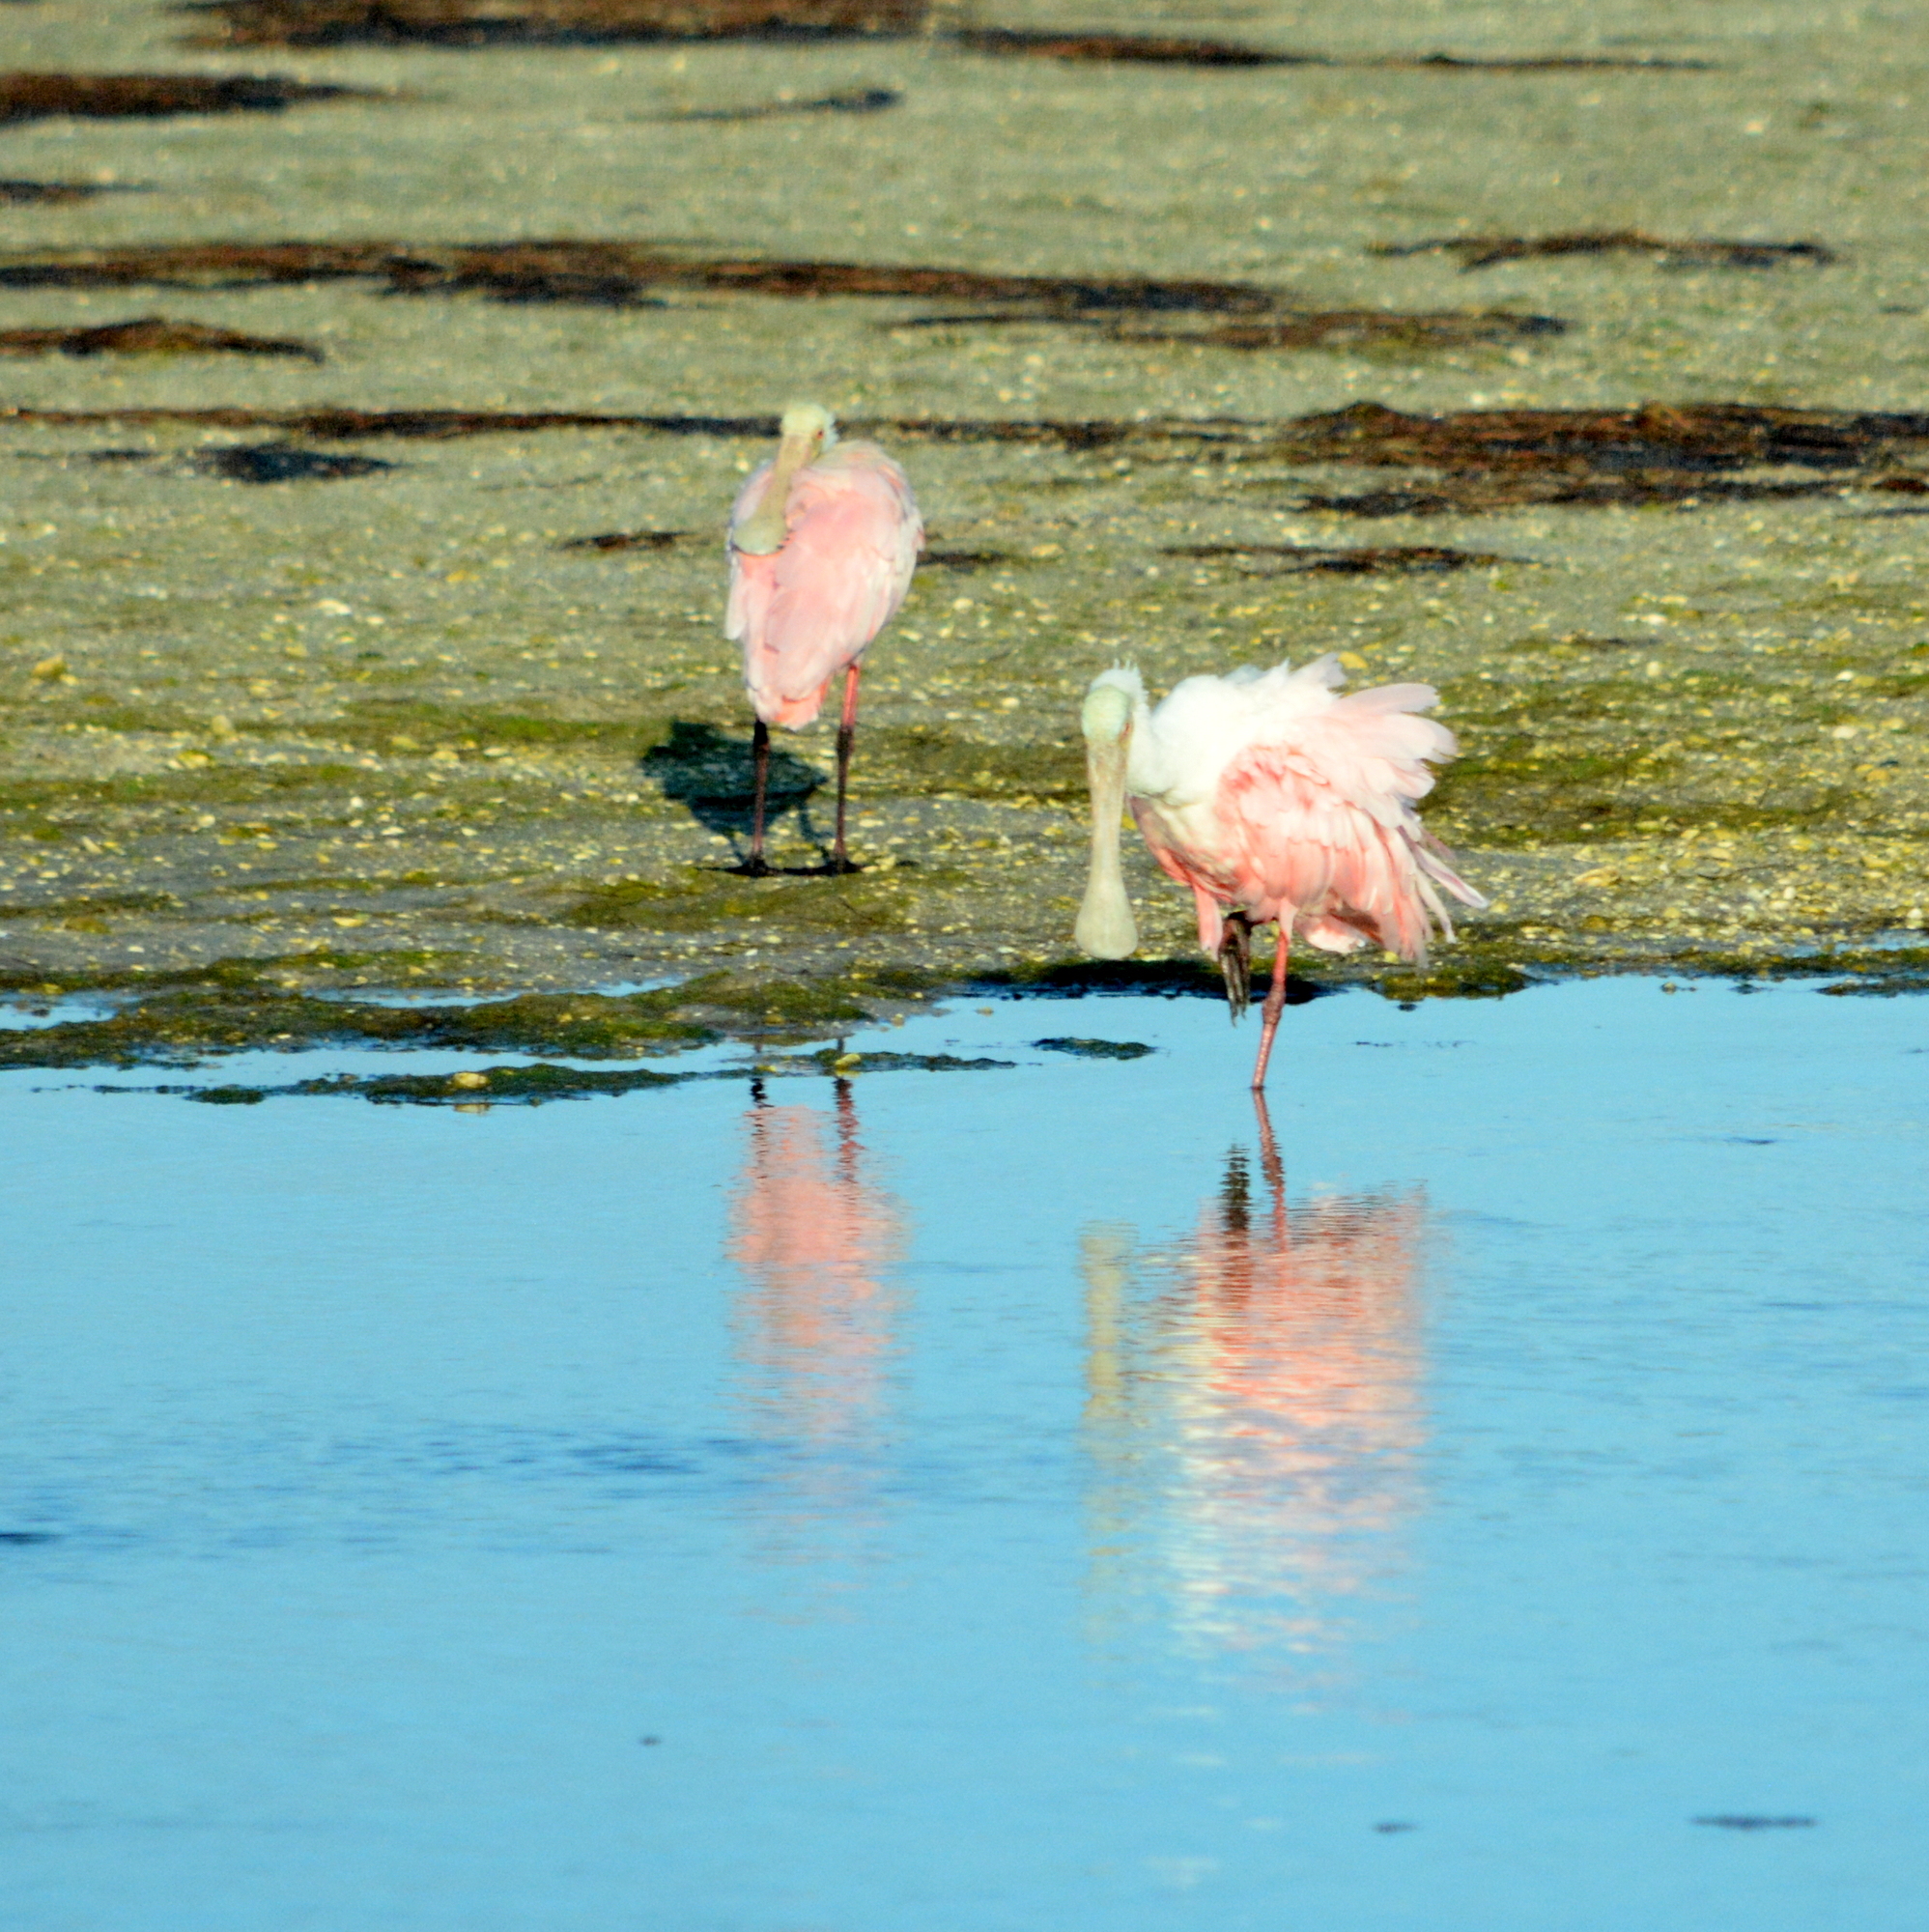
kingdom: Animalia
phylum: Chordata
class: Aves
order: Pelecaniformes
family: Threskiornithidae
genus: Platalea
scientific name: Platalea ajaja
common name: Roseate spoonbill
